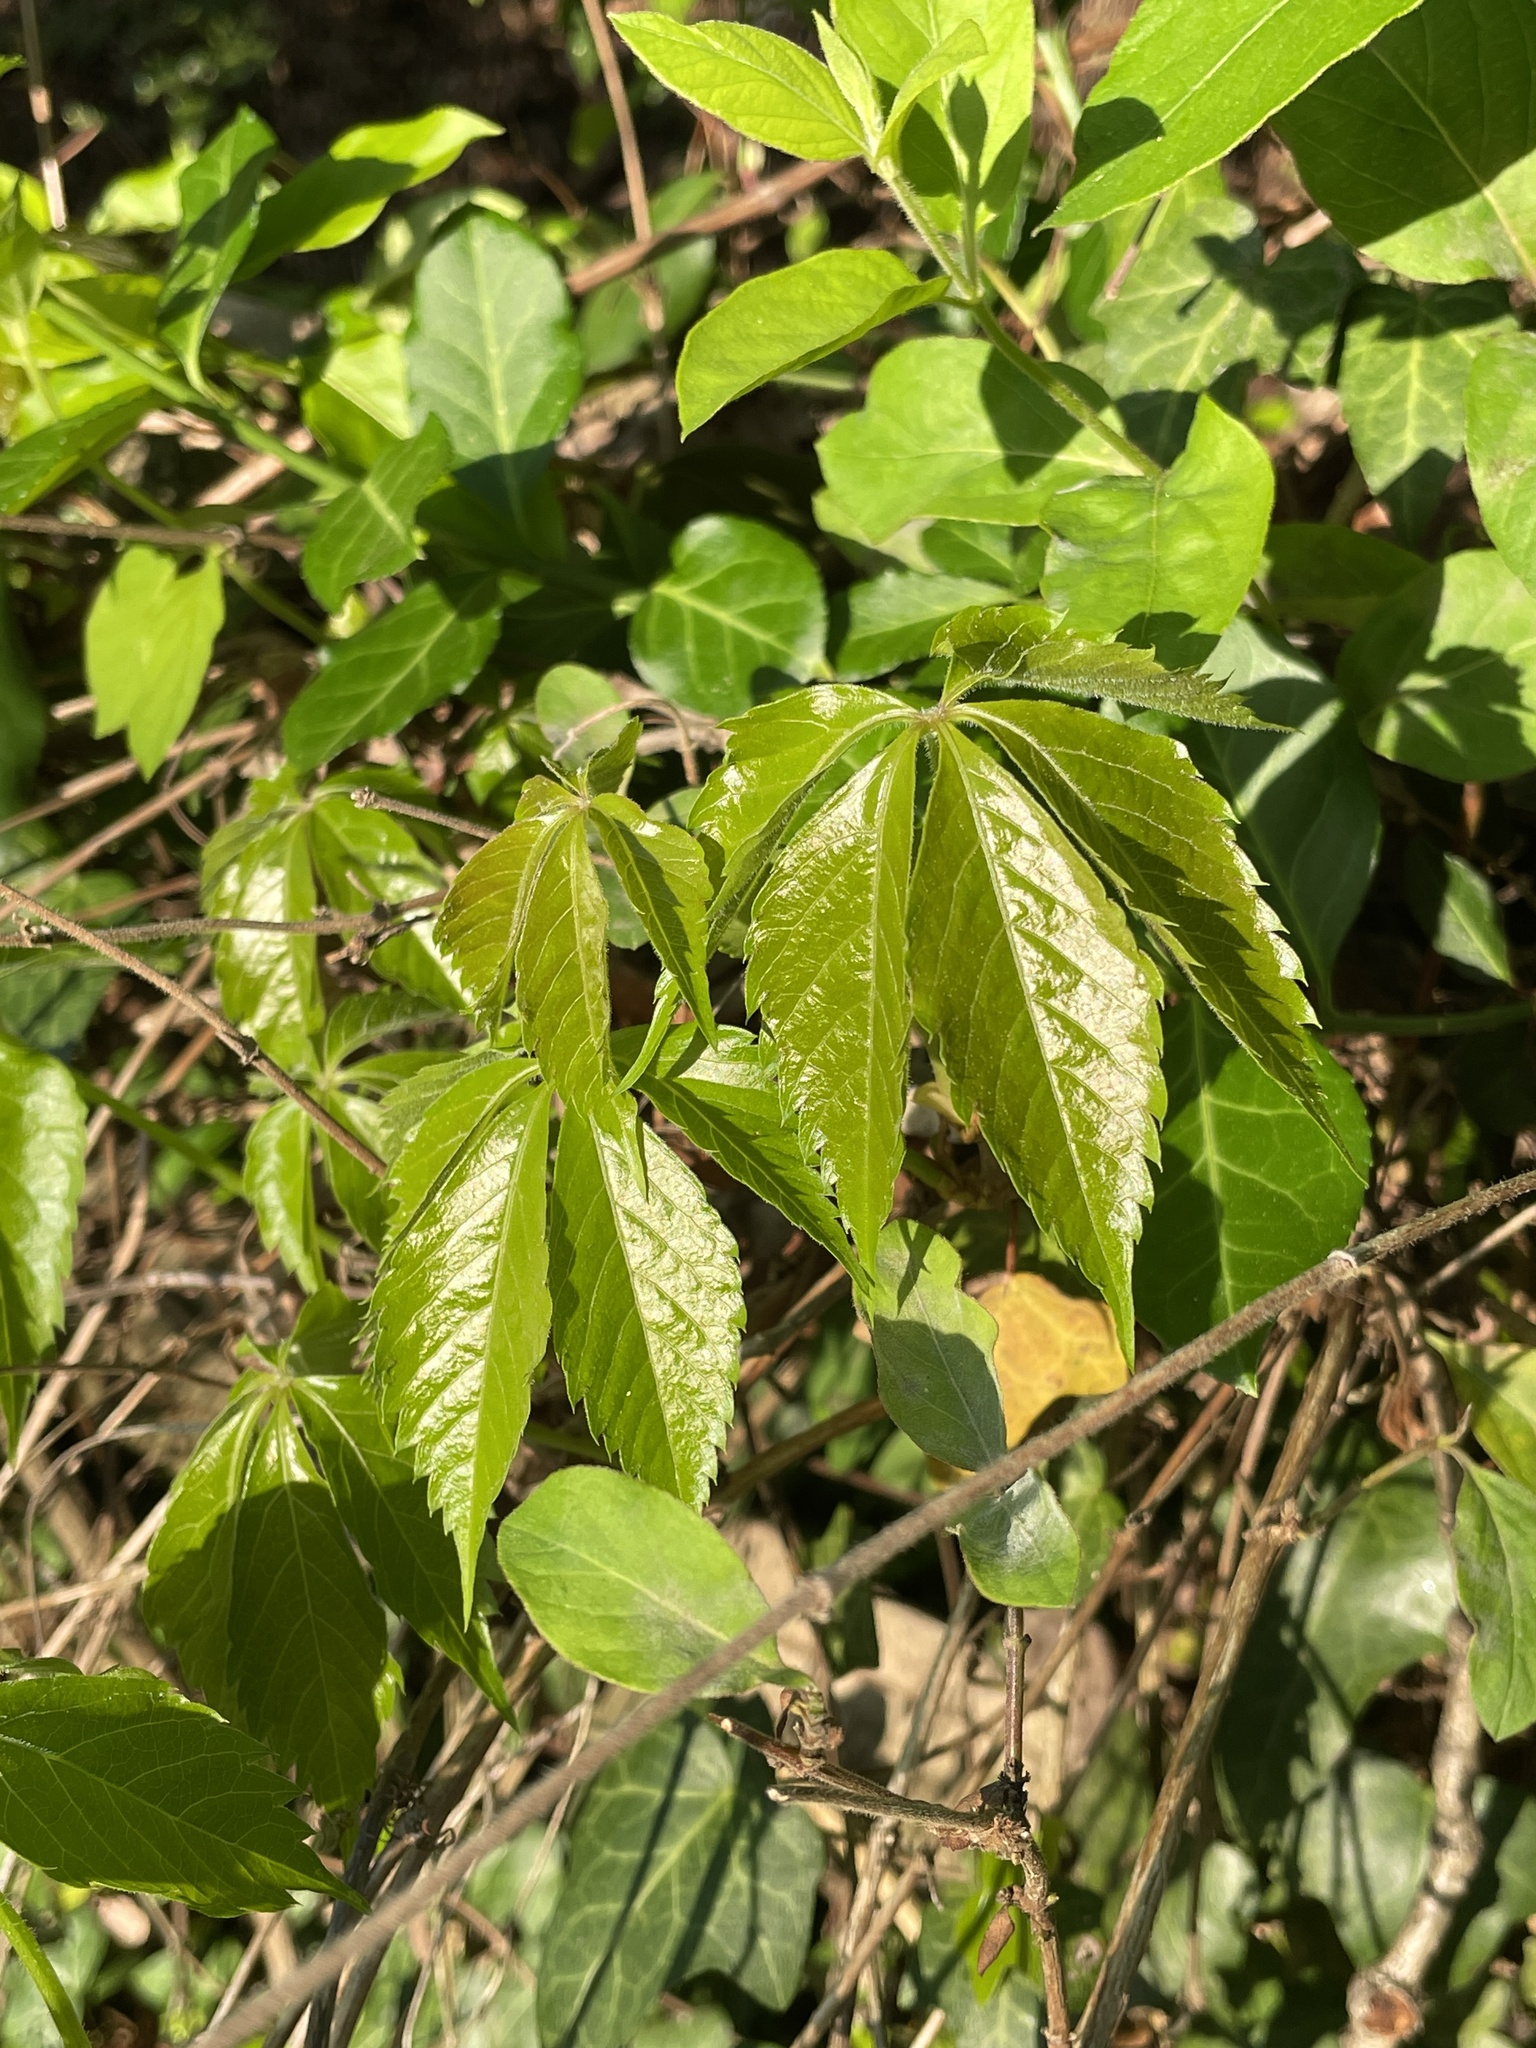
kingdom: Plantae
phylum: Tracheophyta
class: Magnoliopsida
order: Vitales
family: Vitaceae
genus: Parthenocissus
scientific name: Parthenocissus quinquefolia
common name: Virginia-creeper
